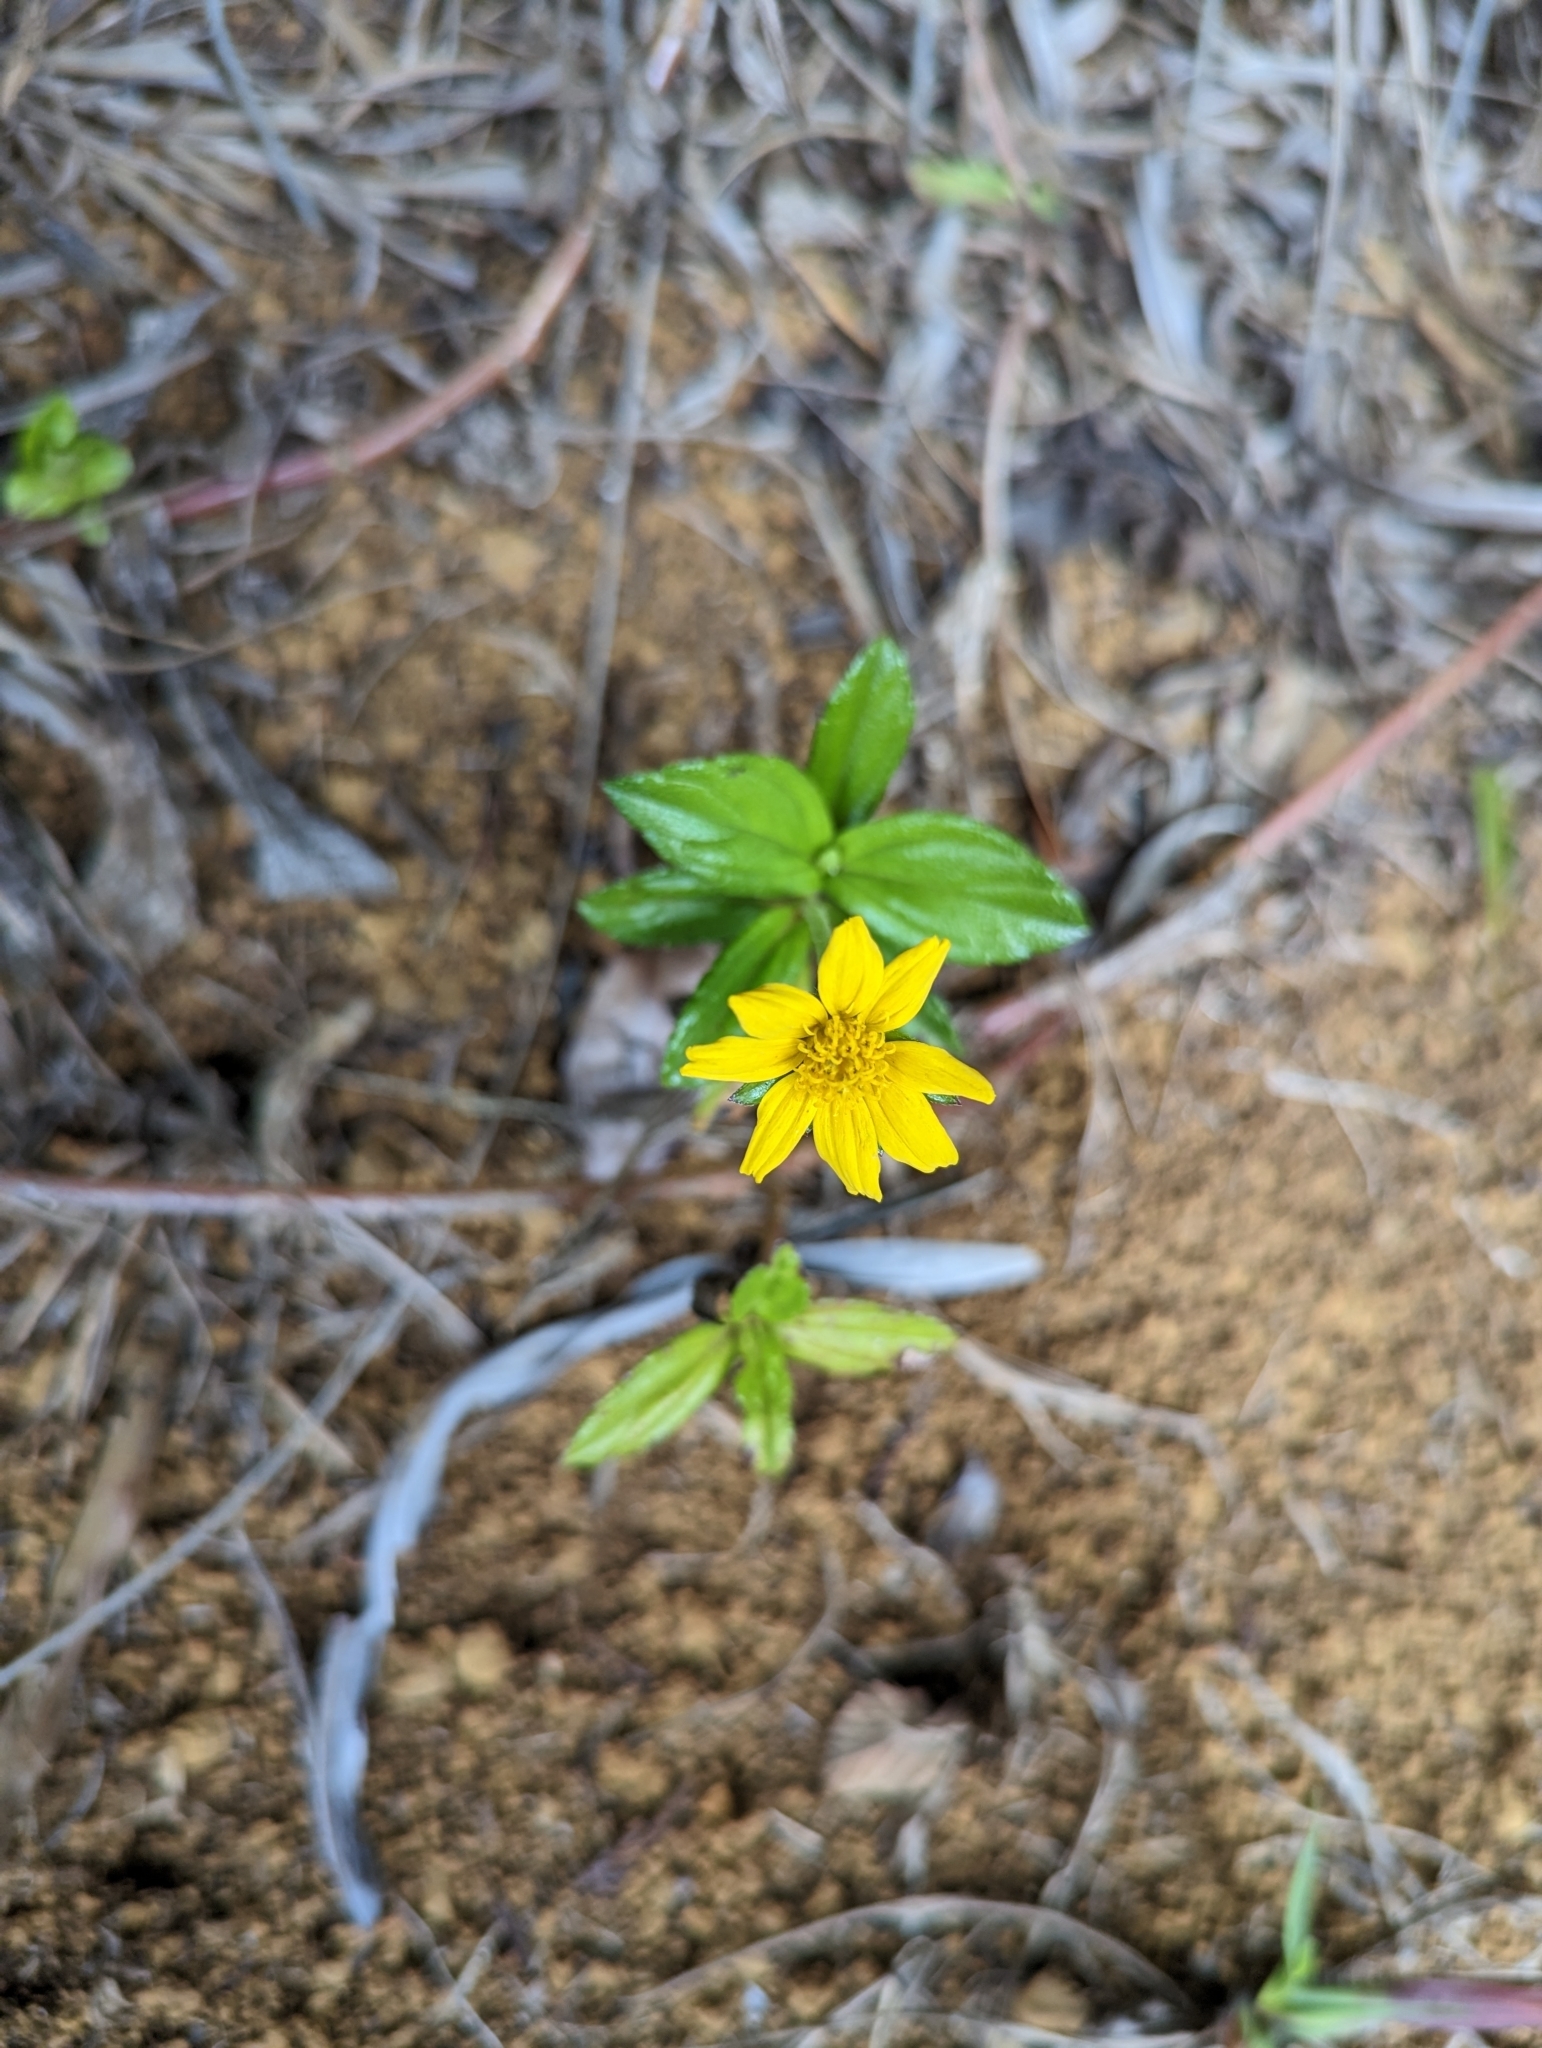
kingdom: Plantae
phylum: Tracheophyta
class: Magnoliopsida
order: Asterales
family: Asteraceae
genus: Sphagneticola
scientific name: Sphagneticola trilobata
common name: Bay biscayne creeping-oxeye
